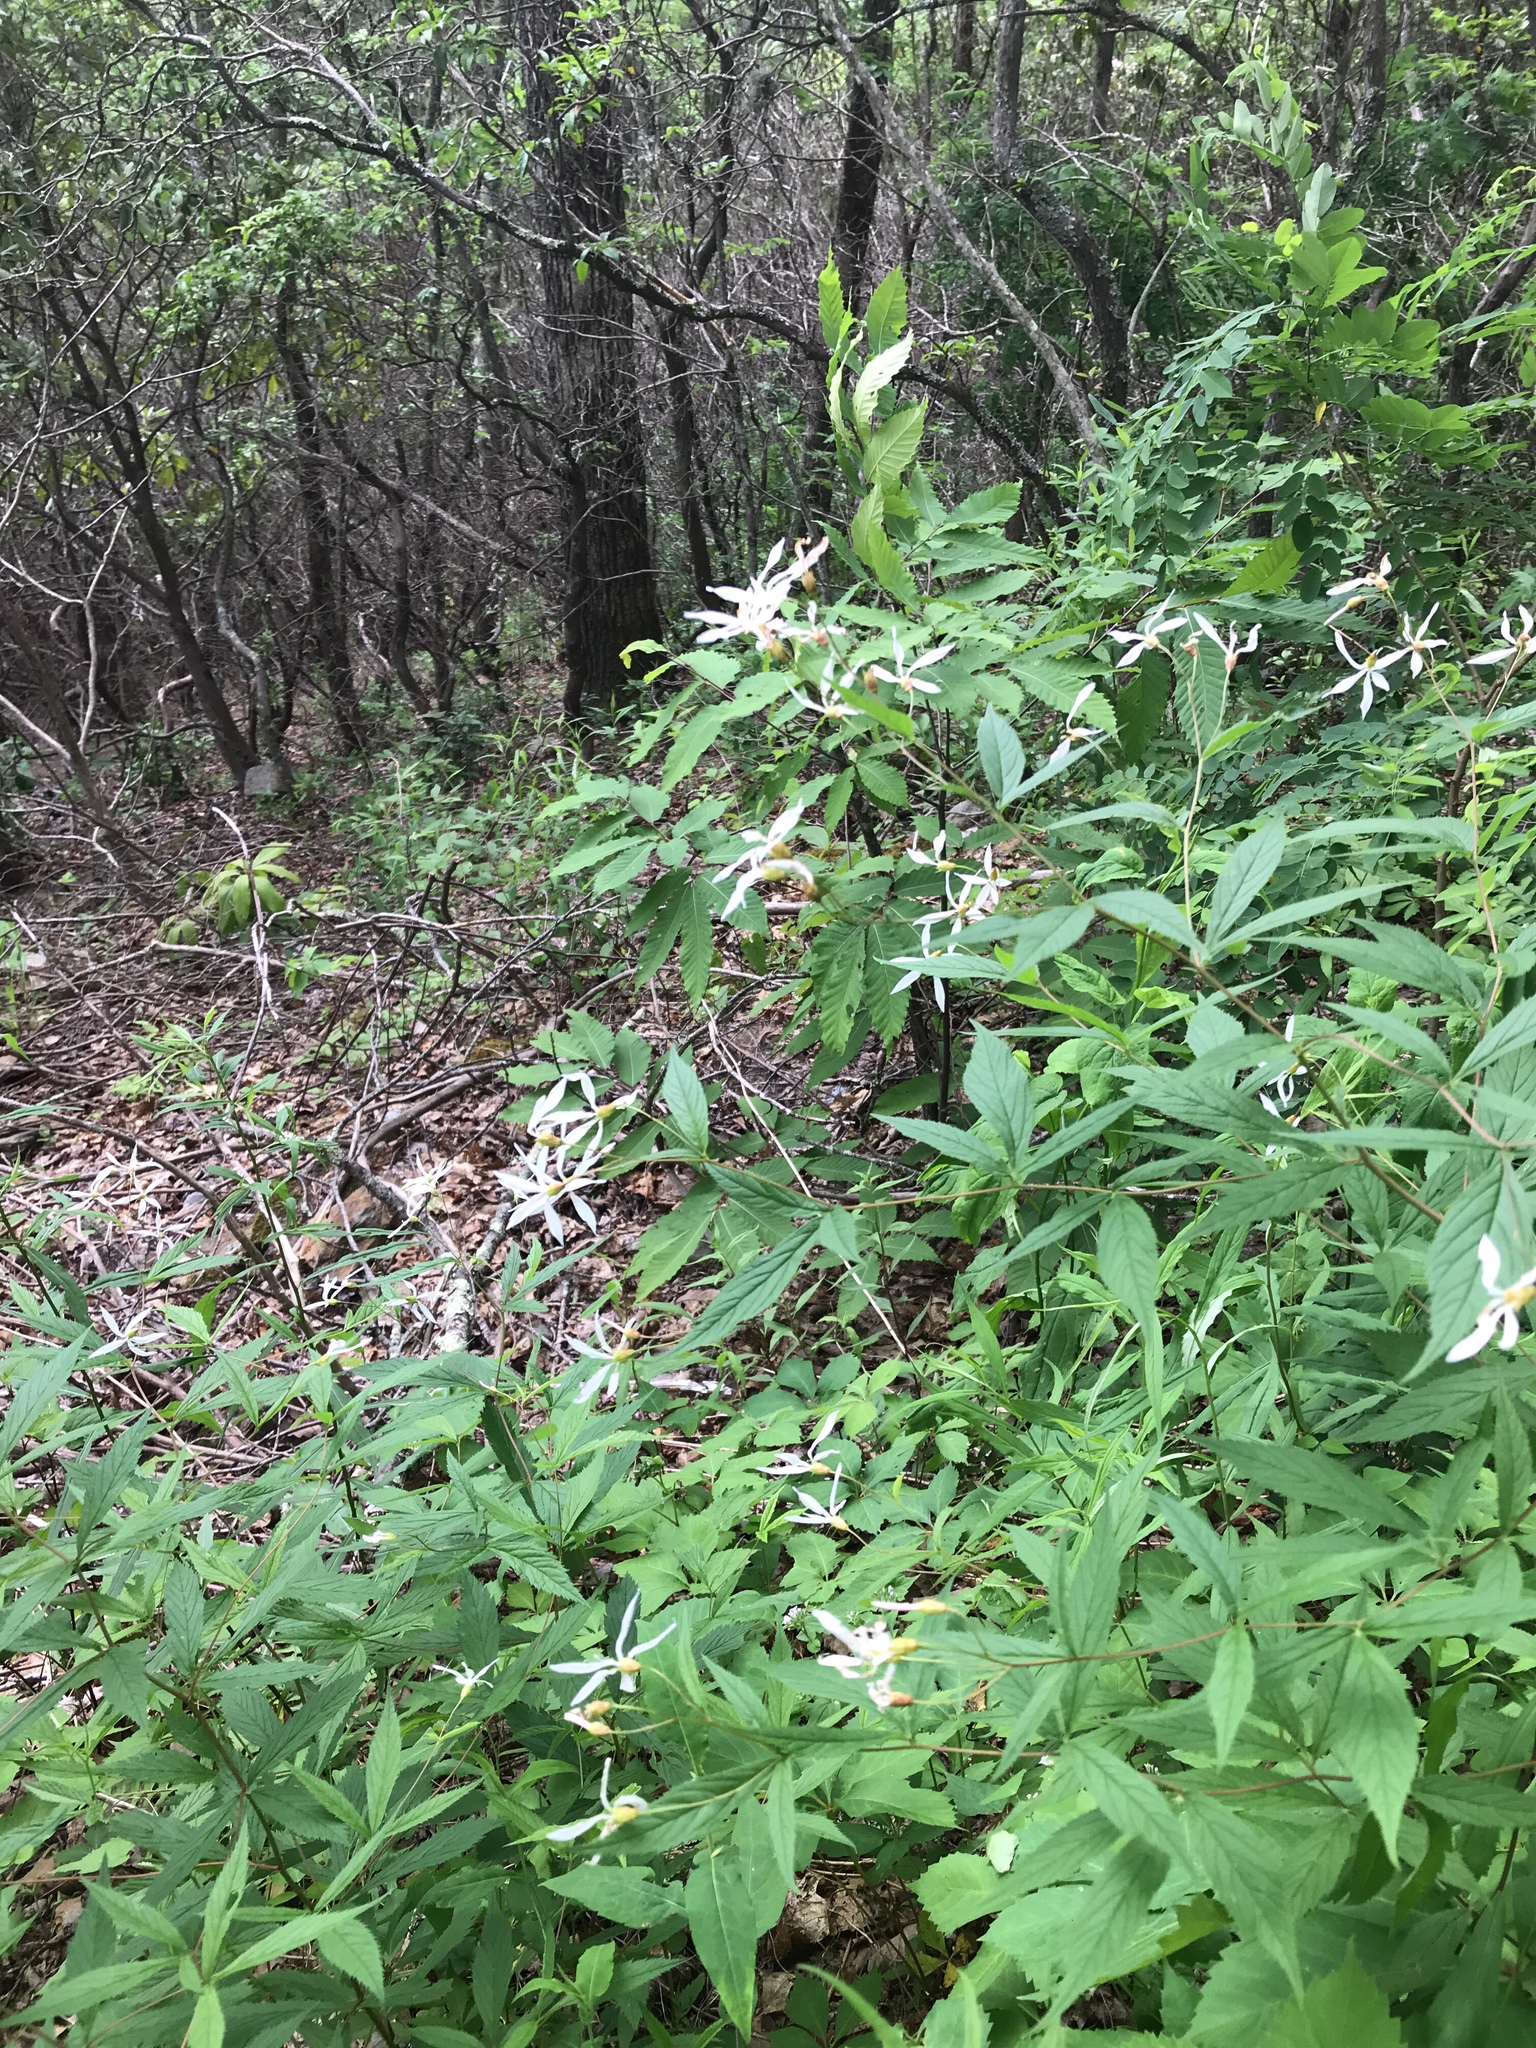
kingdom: Plantae
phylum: Tracheophyta
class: Magnoliopsida
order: Rosales
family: Rosaceae
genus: Gillenia
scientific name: Gillenia trifoliata
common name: Bowman's-root
